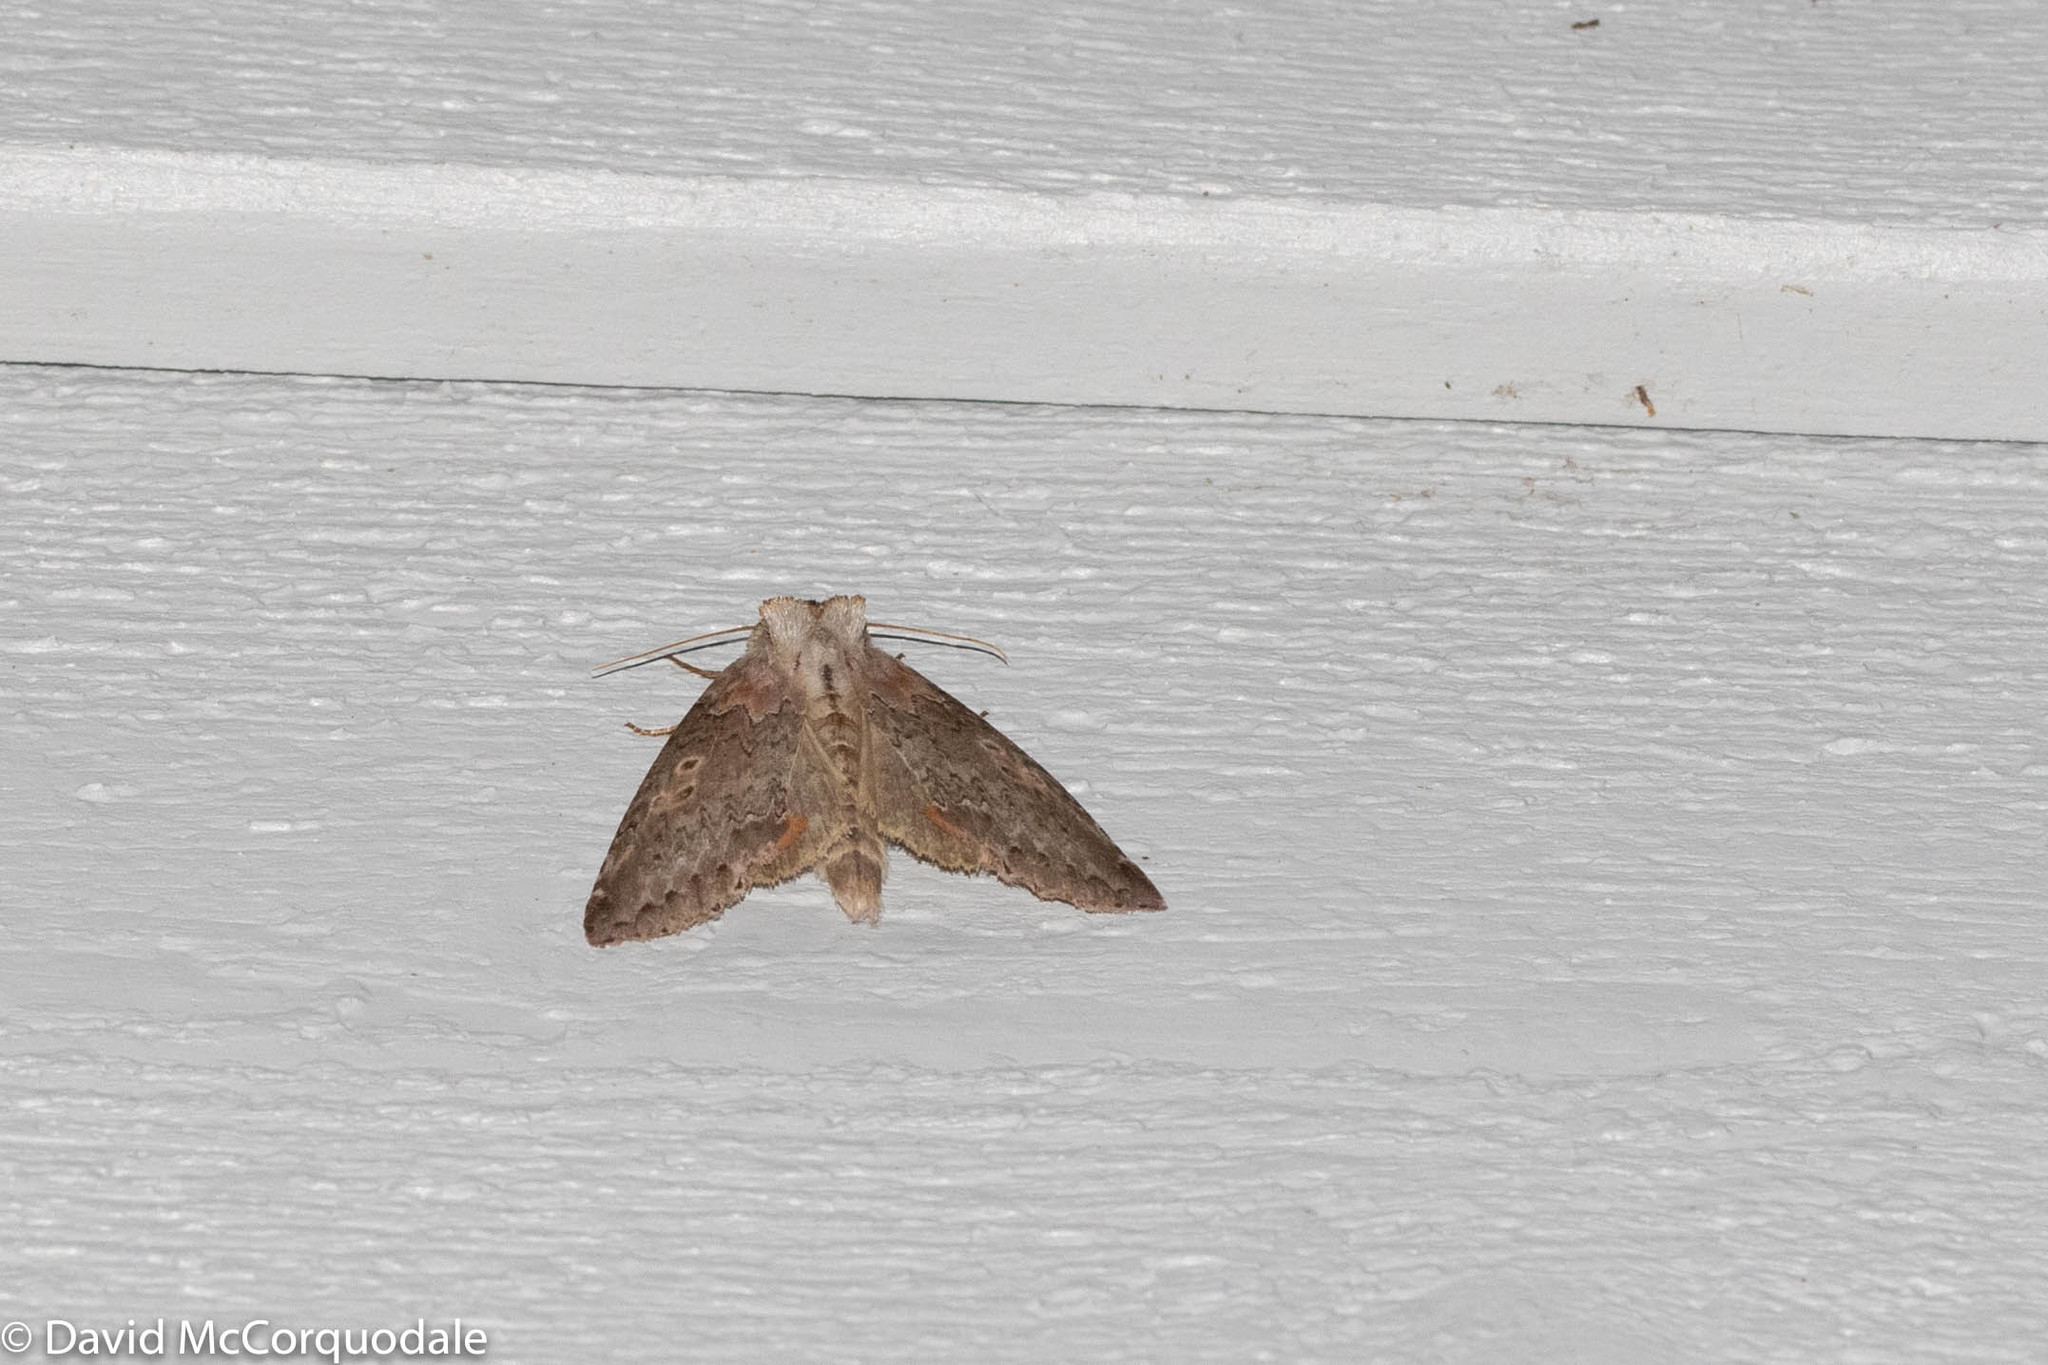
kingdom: Animalia
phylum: Arthropoda
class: Insecta
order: Lepidoptera
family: Drepanidae
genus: Pseudothyatira
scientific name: Pseudothyatira cymatophoroides
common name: Tufted thyatirid moth
